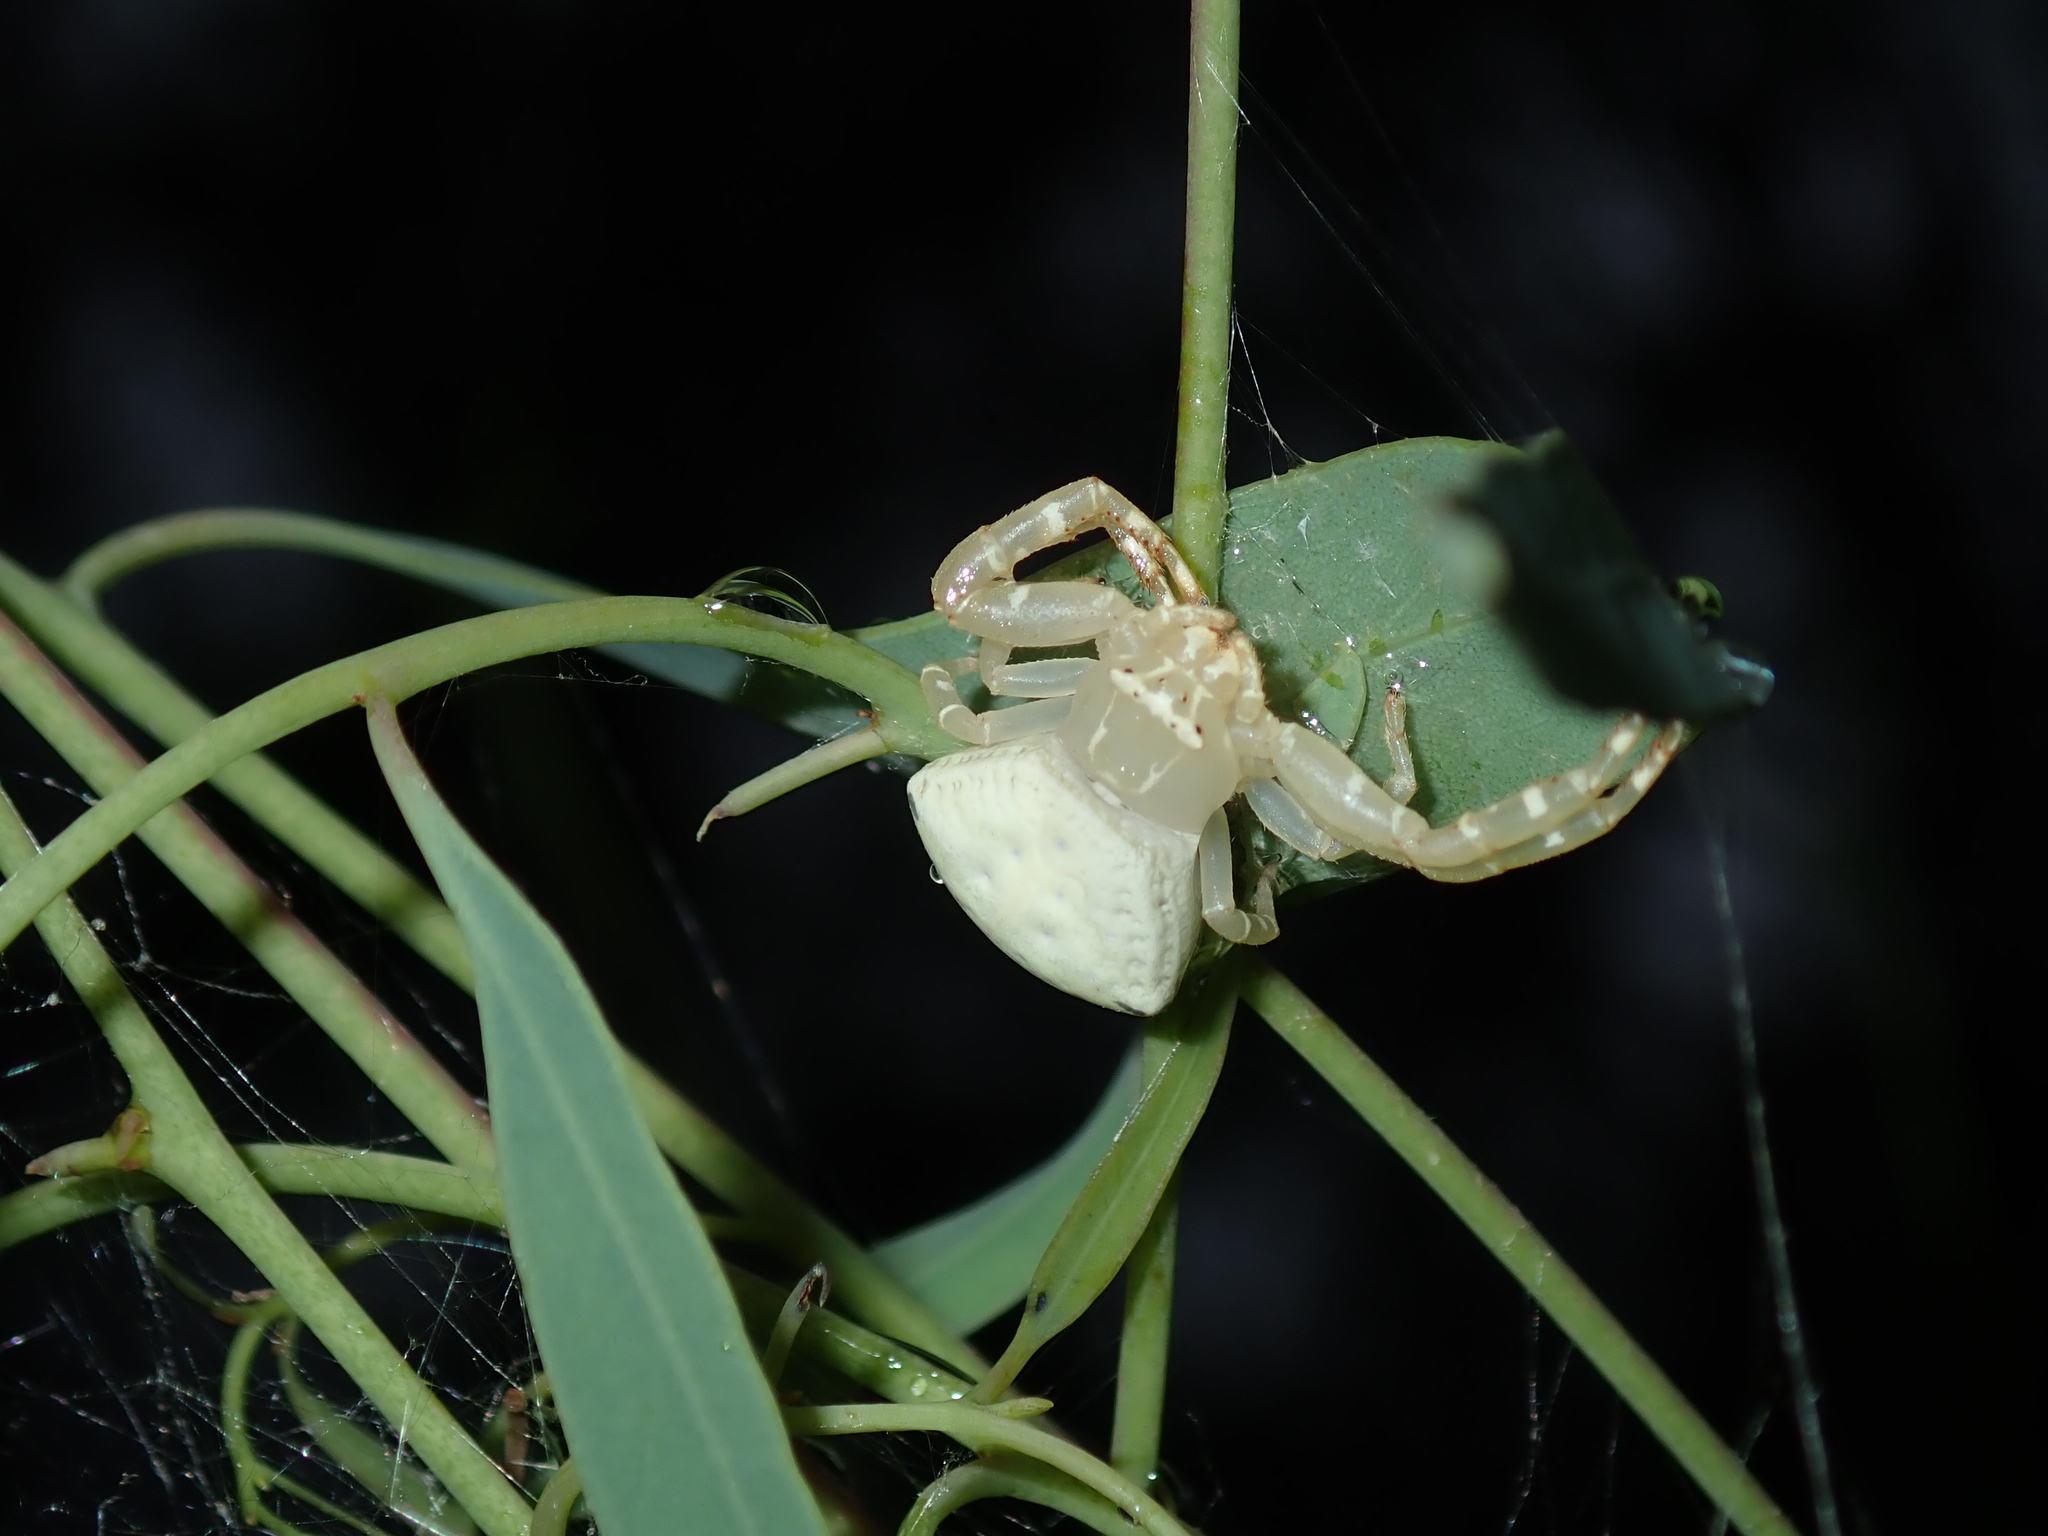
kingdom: Animalia
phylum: Arthropoda
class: Arachnida
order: Araneae
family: Thomisidae
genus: Thomisus
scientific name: Thomisus spectabilis
